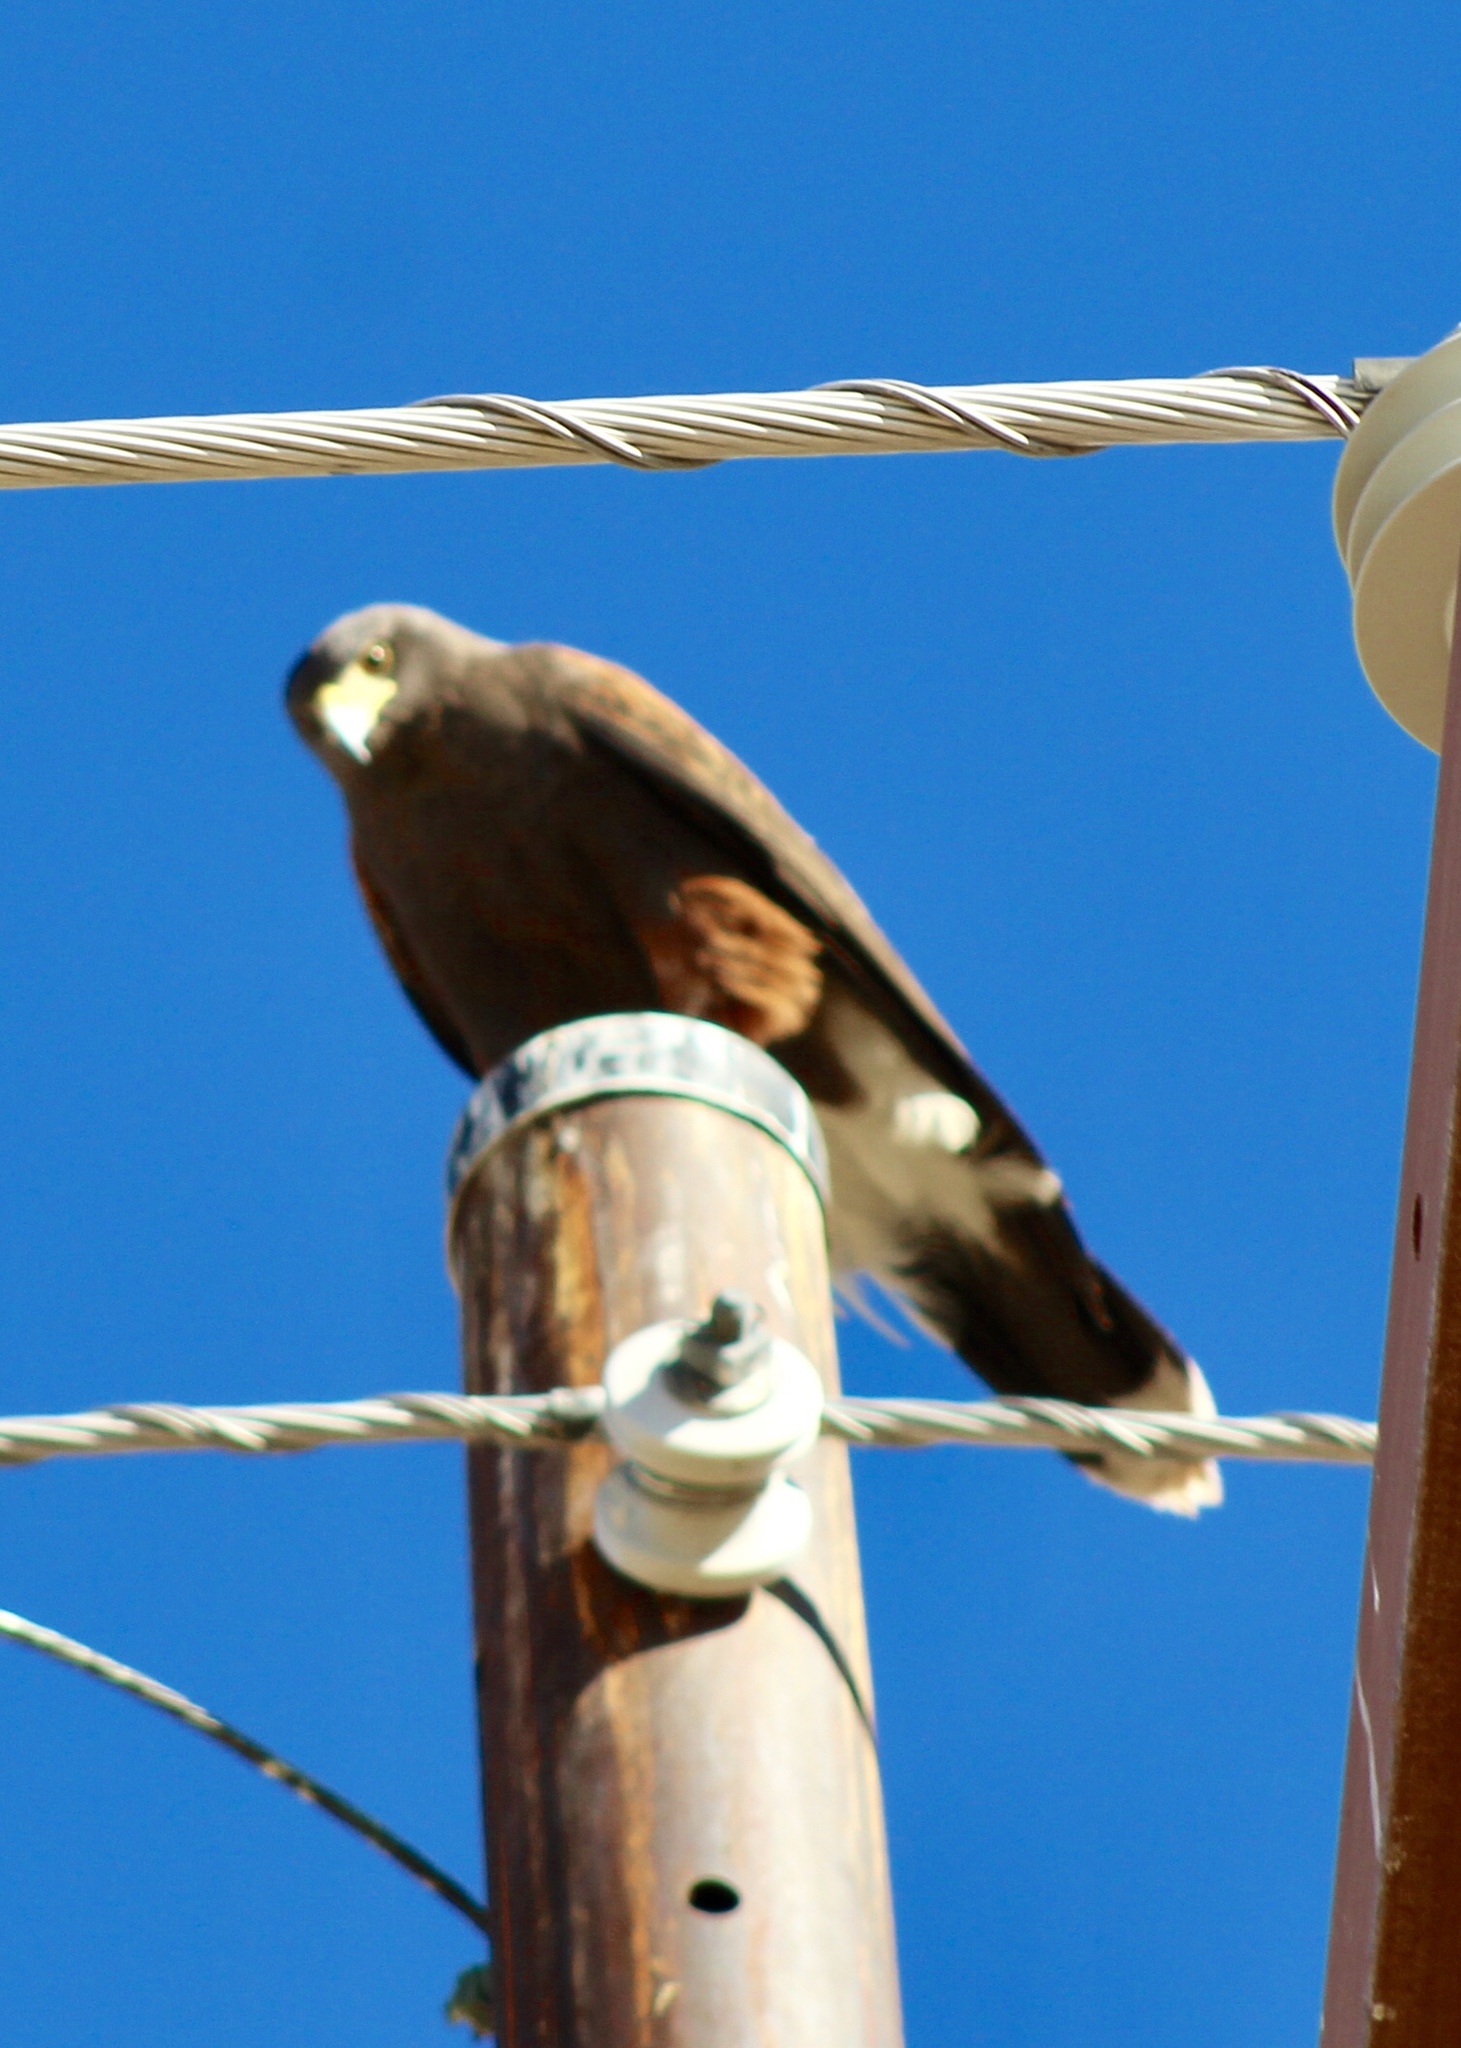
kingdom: Animalia
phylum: Chordata
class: Aves
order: Accipitriformes
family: Accipitridae
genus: Parabuteo
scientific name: Parabuteo unicinctus
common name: Harris's hawk
